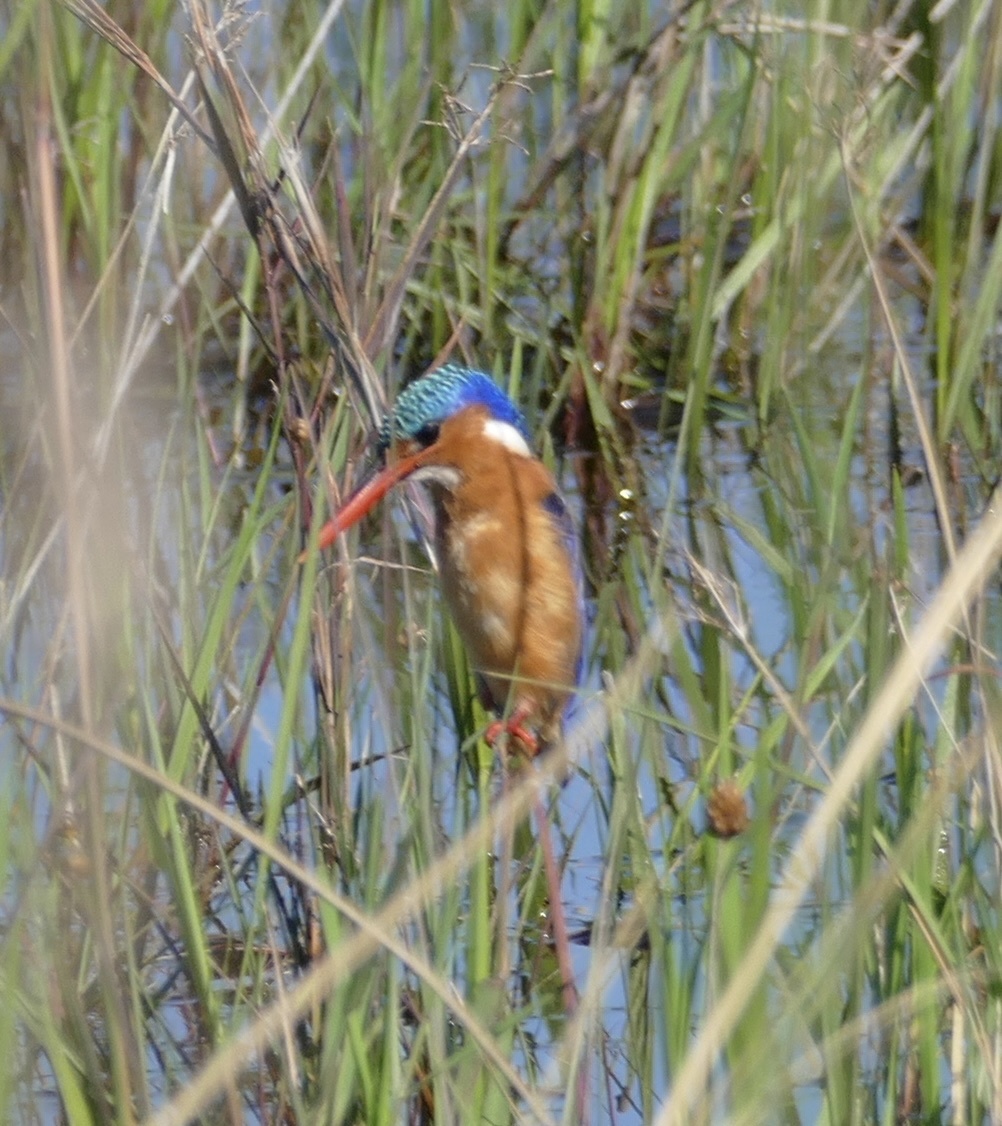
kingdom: Animalia
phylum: Chordata
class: Aves
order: Coraciiformes
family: Alcedinidae
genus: Corythornis
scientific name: Corythornis cristatus
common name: Malachite kingfisher
